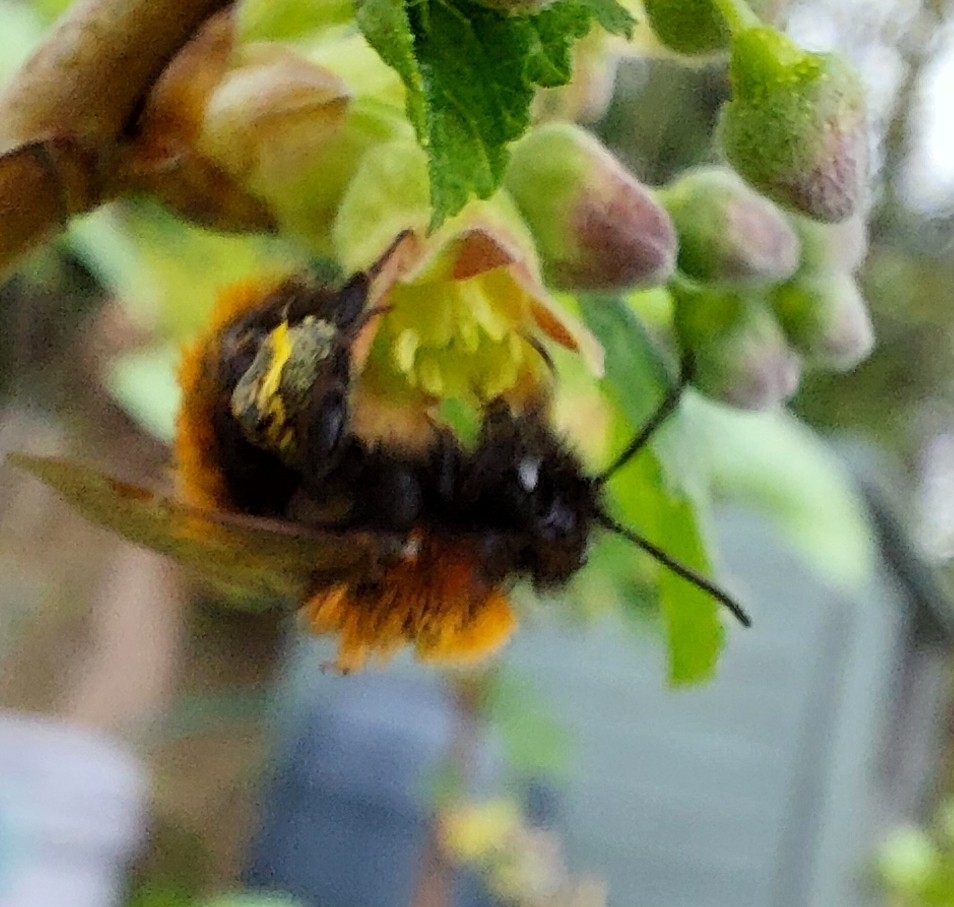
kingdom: Animalia
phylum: Arthropoda
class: Insecta
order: Hymenoptera
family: Andrenidae
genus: Andrena
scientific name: Andrena fulva
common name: Tawny mining bee
